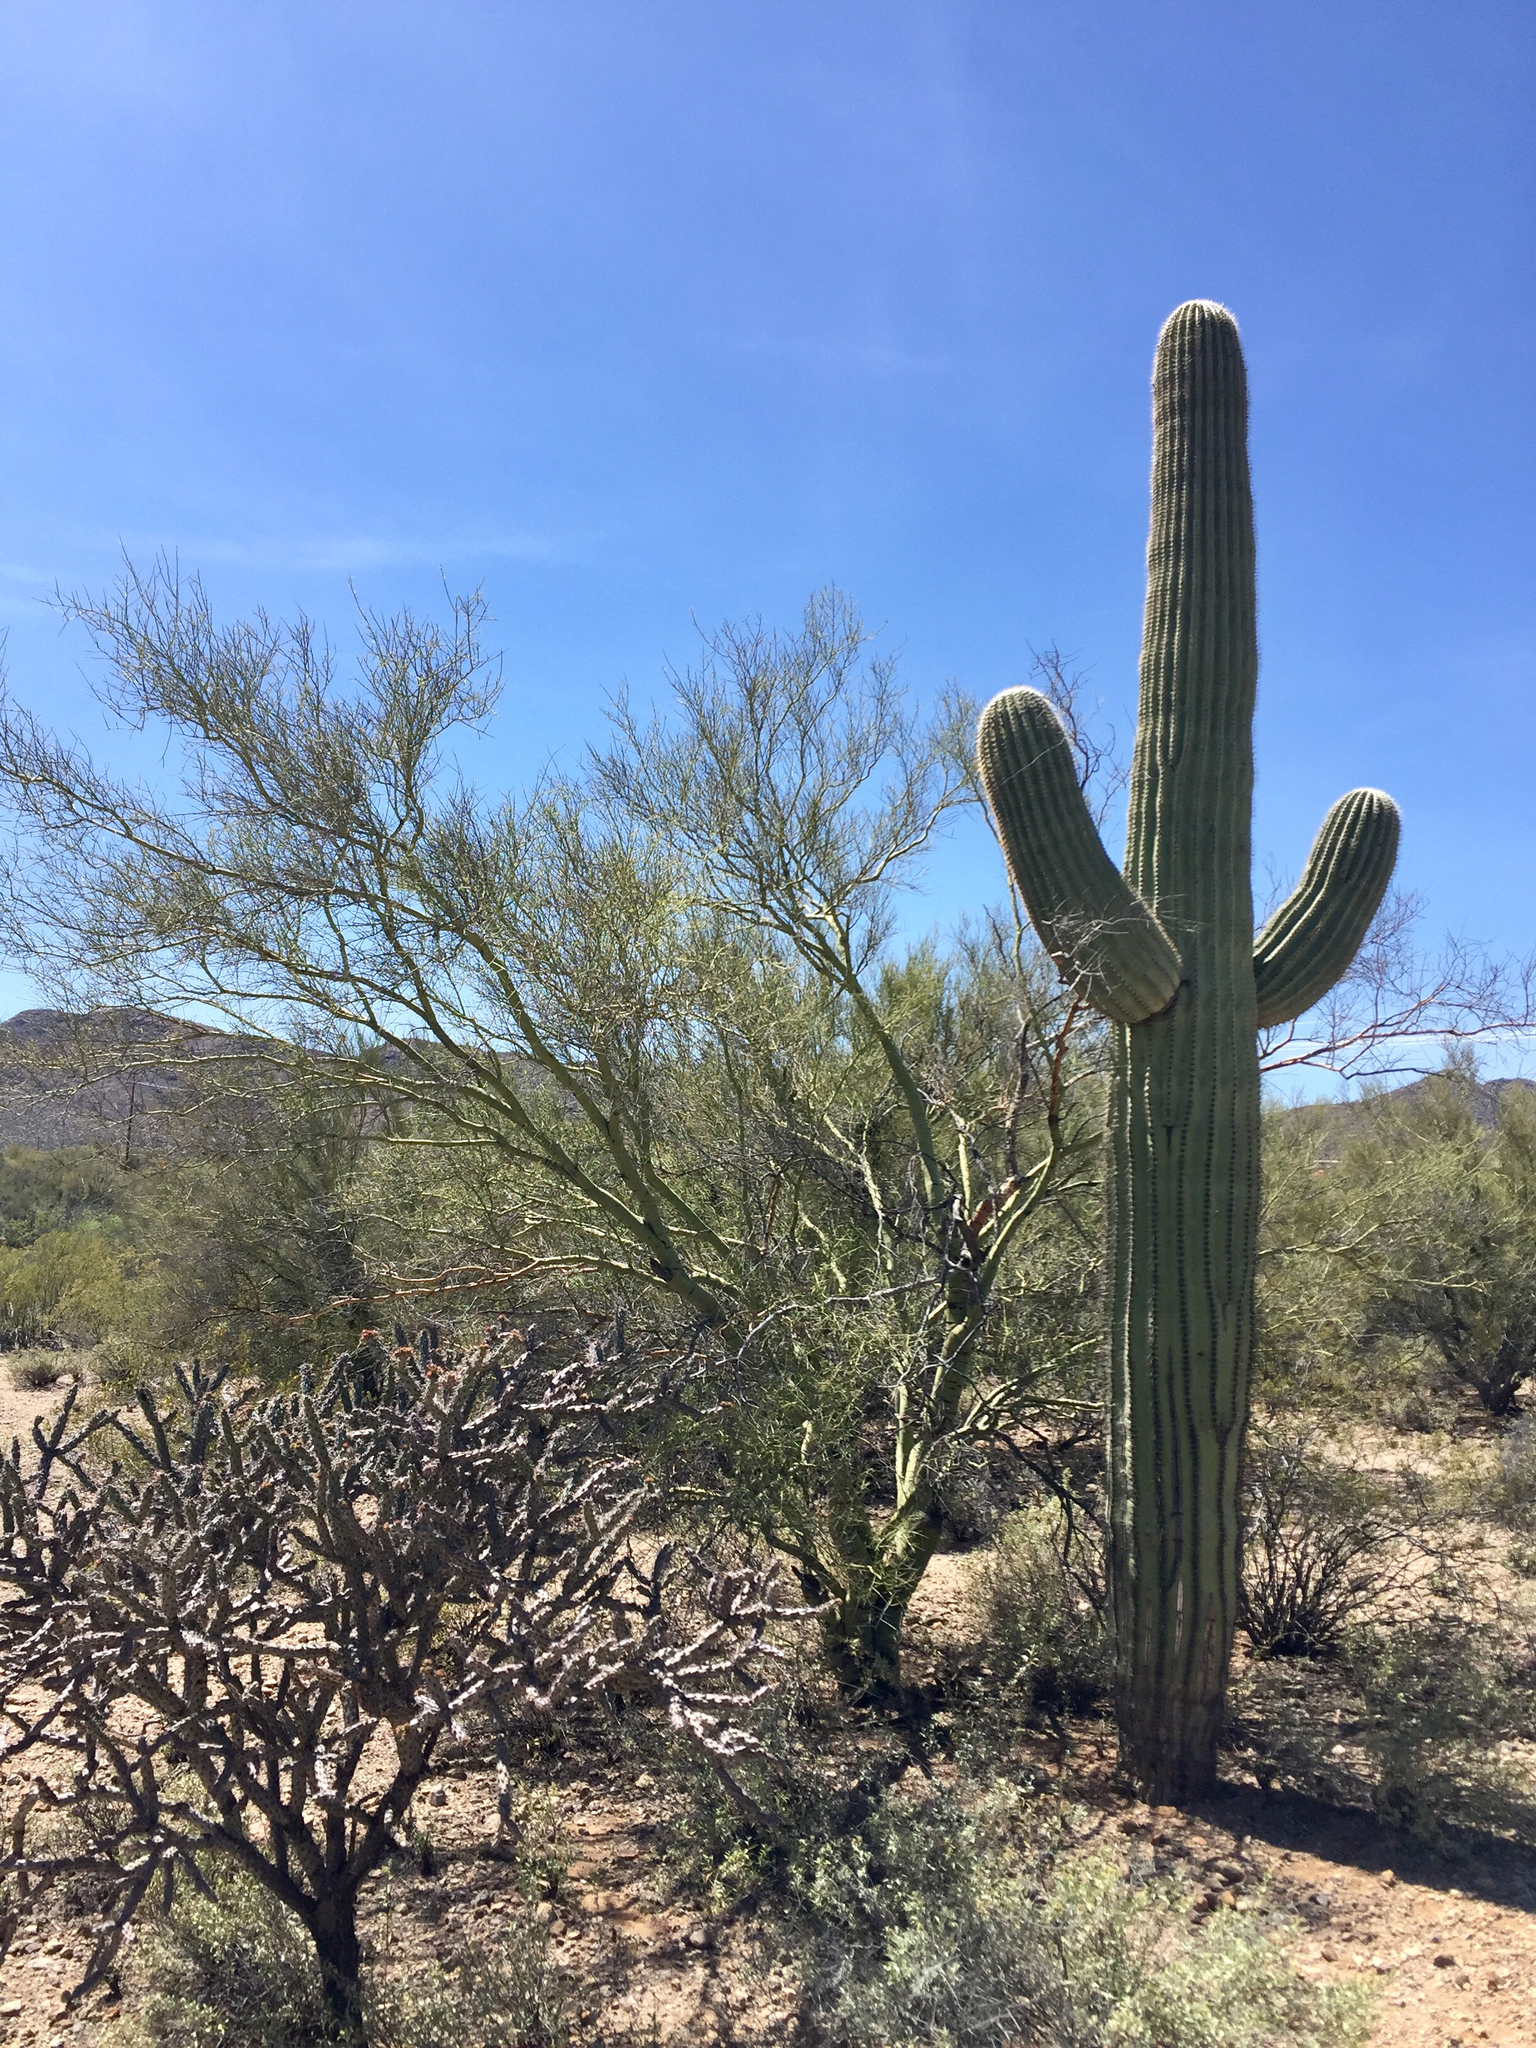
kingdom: Plantae
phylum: Tracheophyta
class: Magnoliopsida
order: Fabales
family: Fabaceae
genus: Parkinsonia
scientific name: Parkinsonia microphylla
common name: Yellow paloverde
